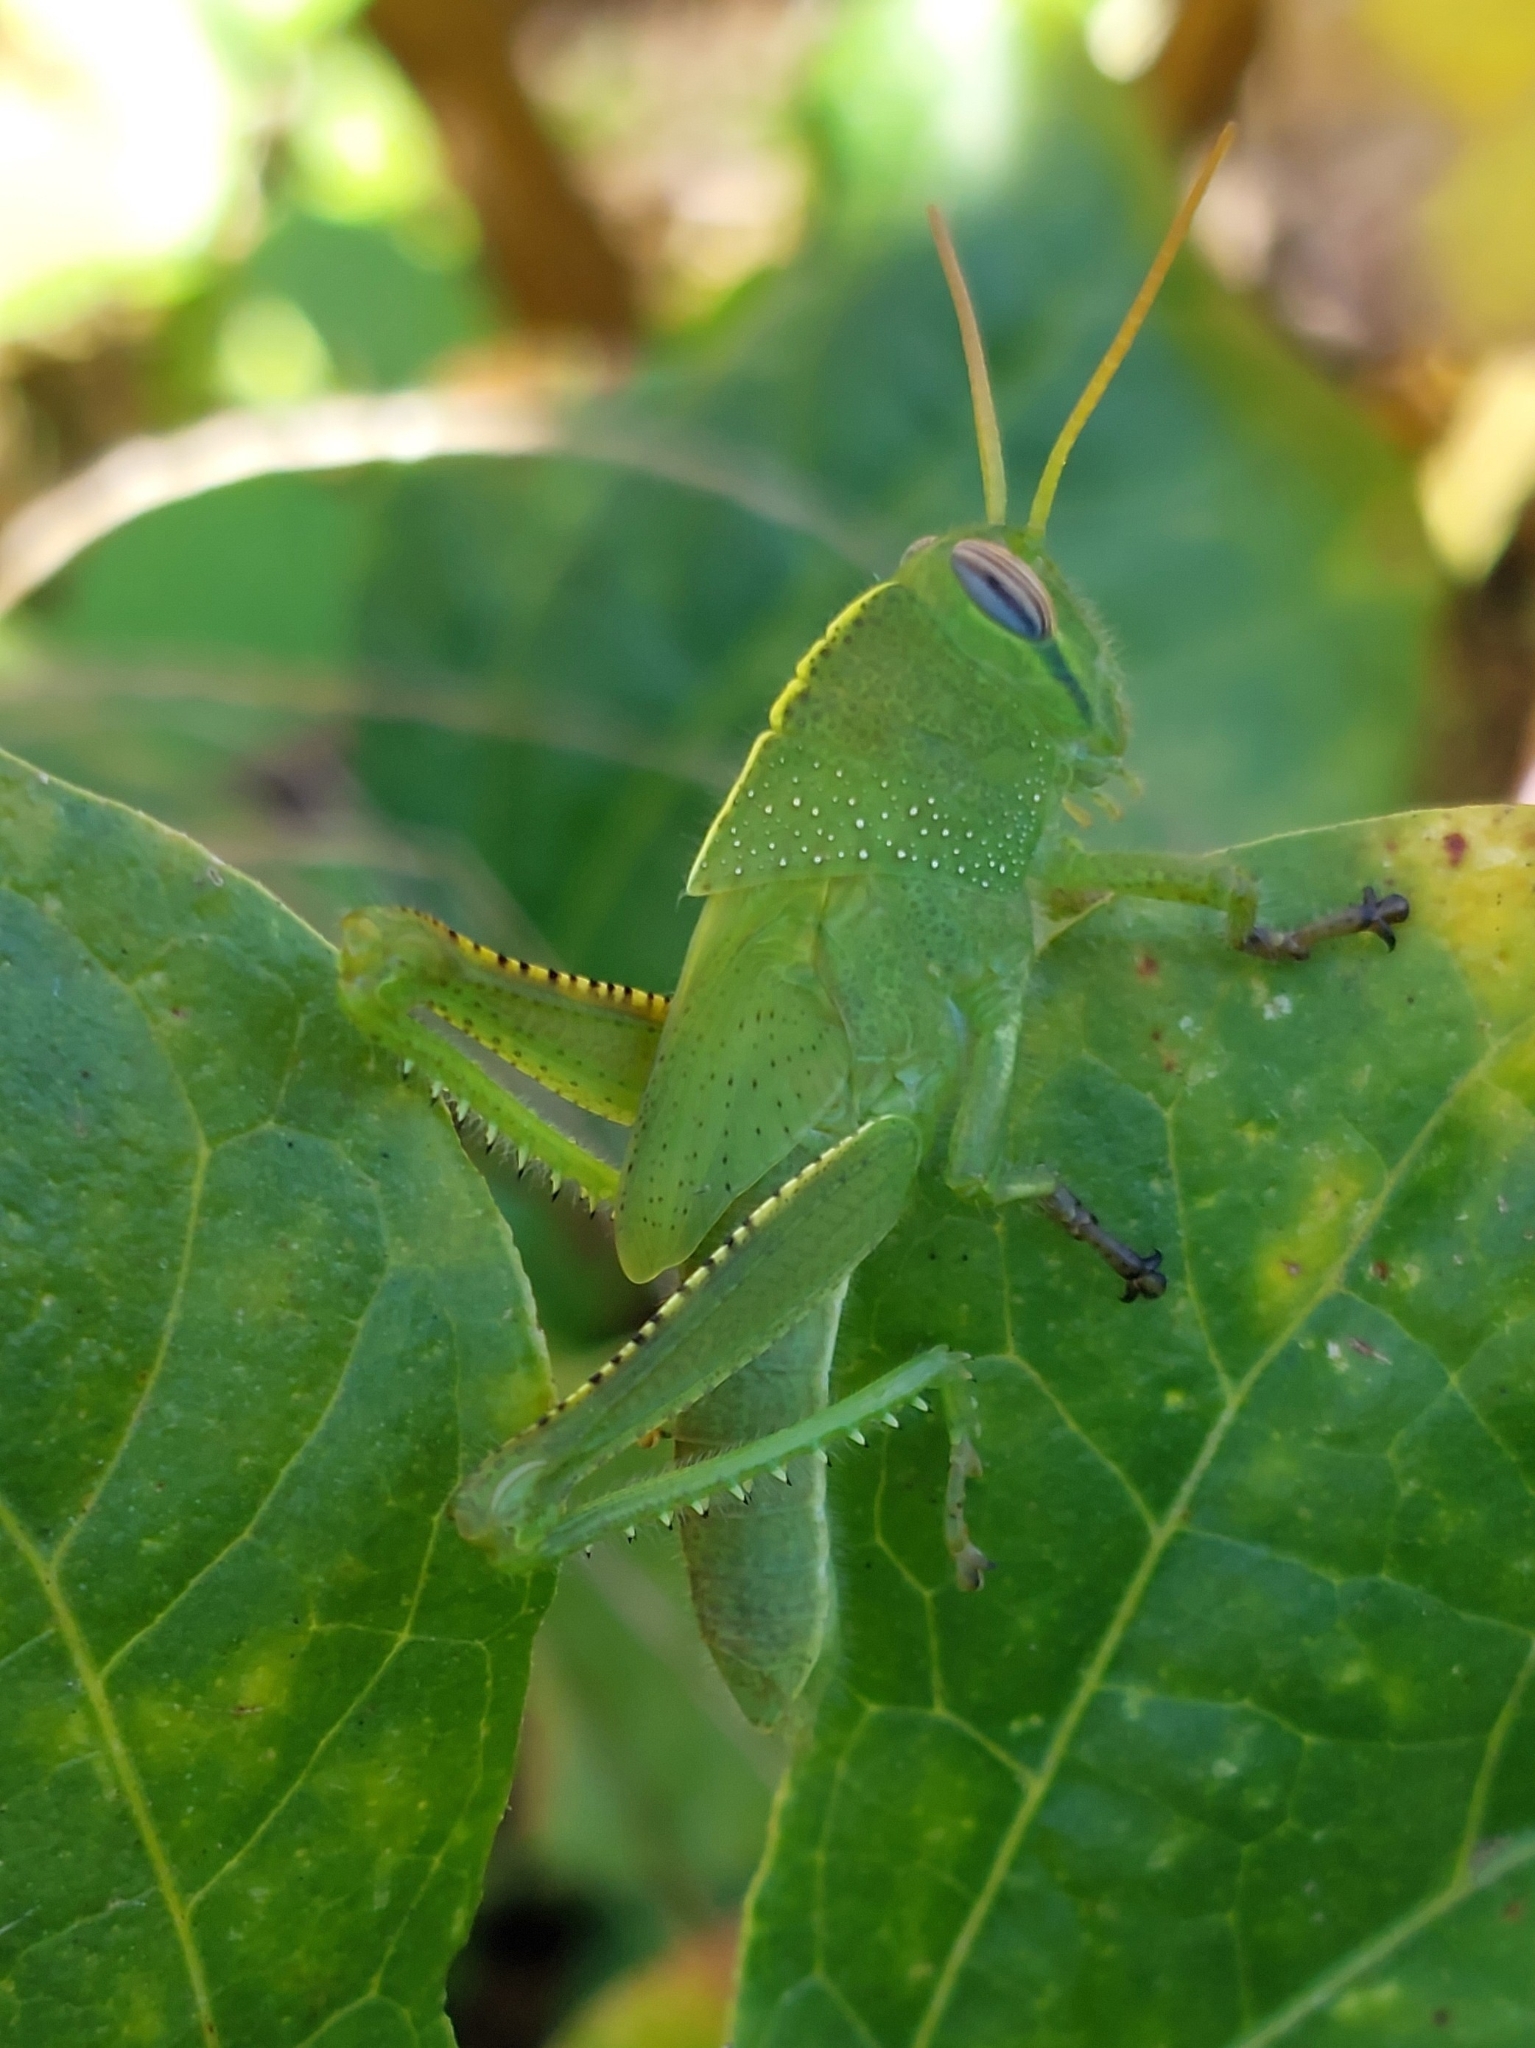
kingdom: Animalia
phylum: Arthropoda
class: Insecta
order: Orthoptera
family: Acrididae
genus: Anacridium
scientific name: Anacridium aegyptium
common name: Egyptian grasshopper
